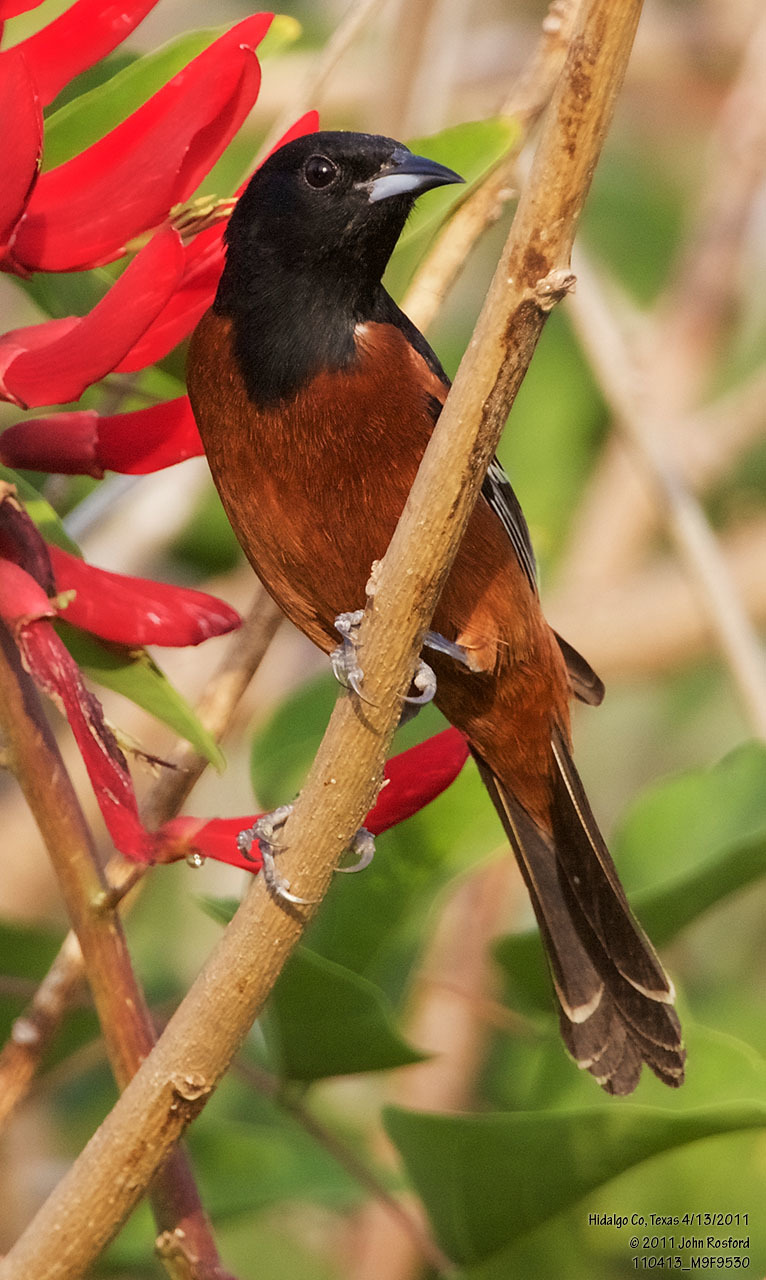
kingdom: Animalia
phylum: Chordata
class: Aves
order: Passeriformes
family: Icteridae
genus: Icterus
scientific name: Icterus spurius
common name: Orchard oriole
